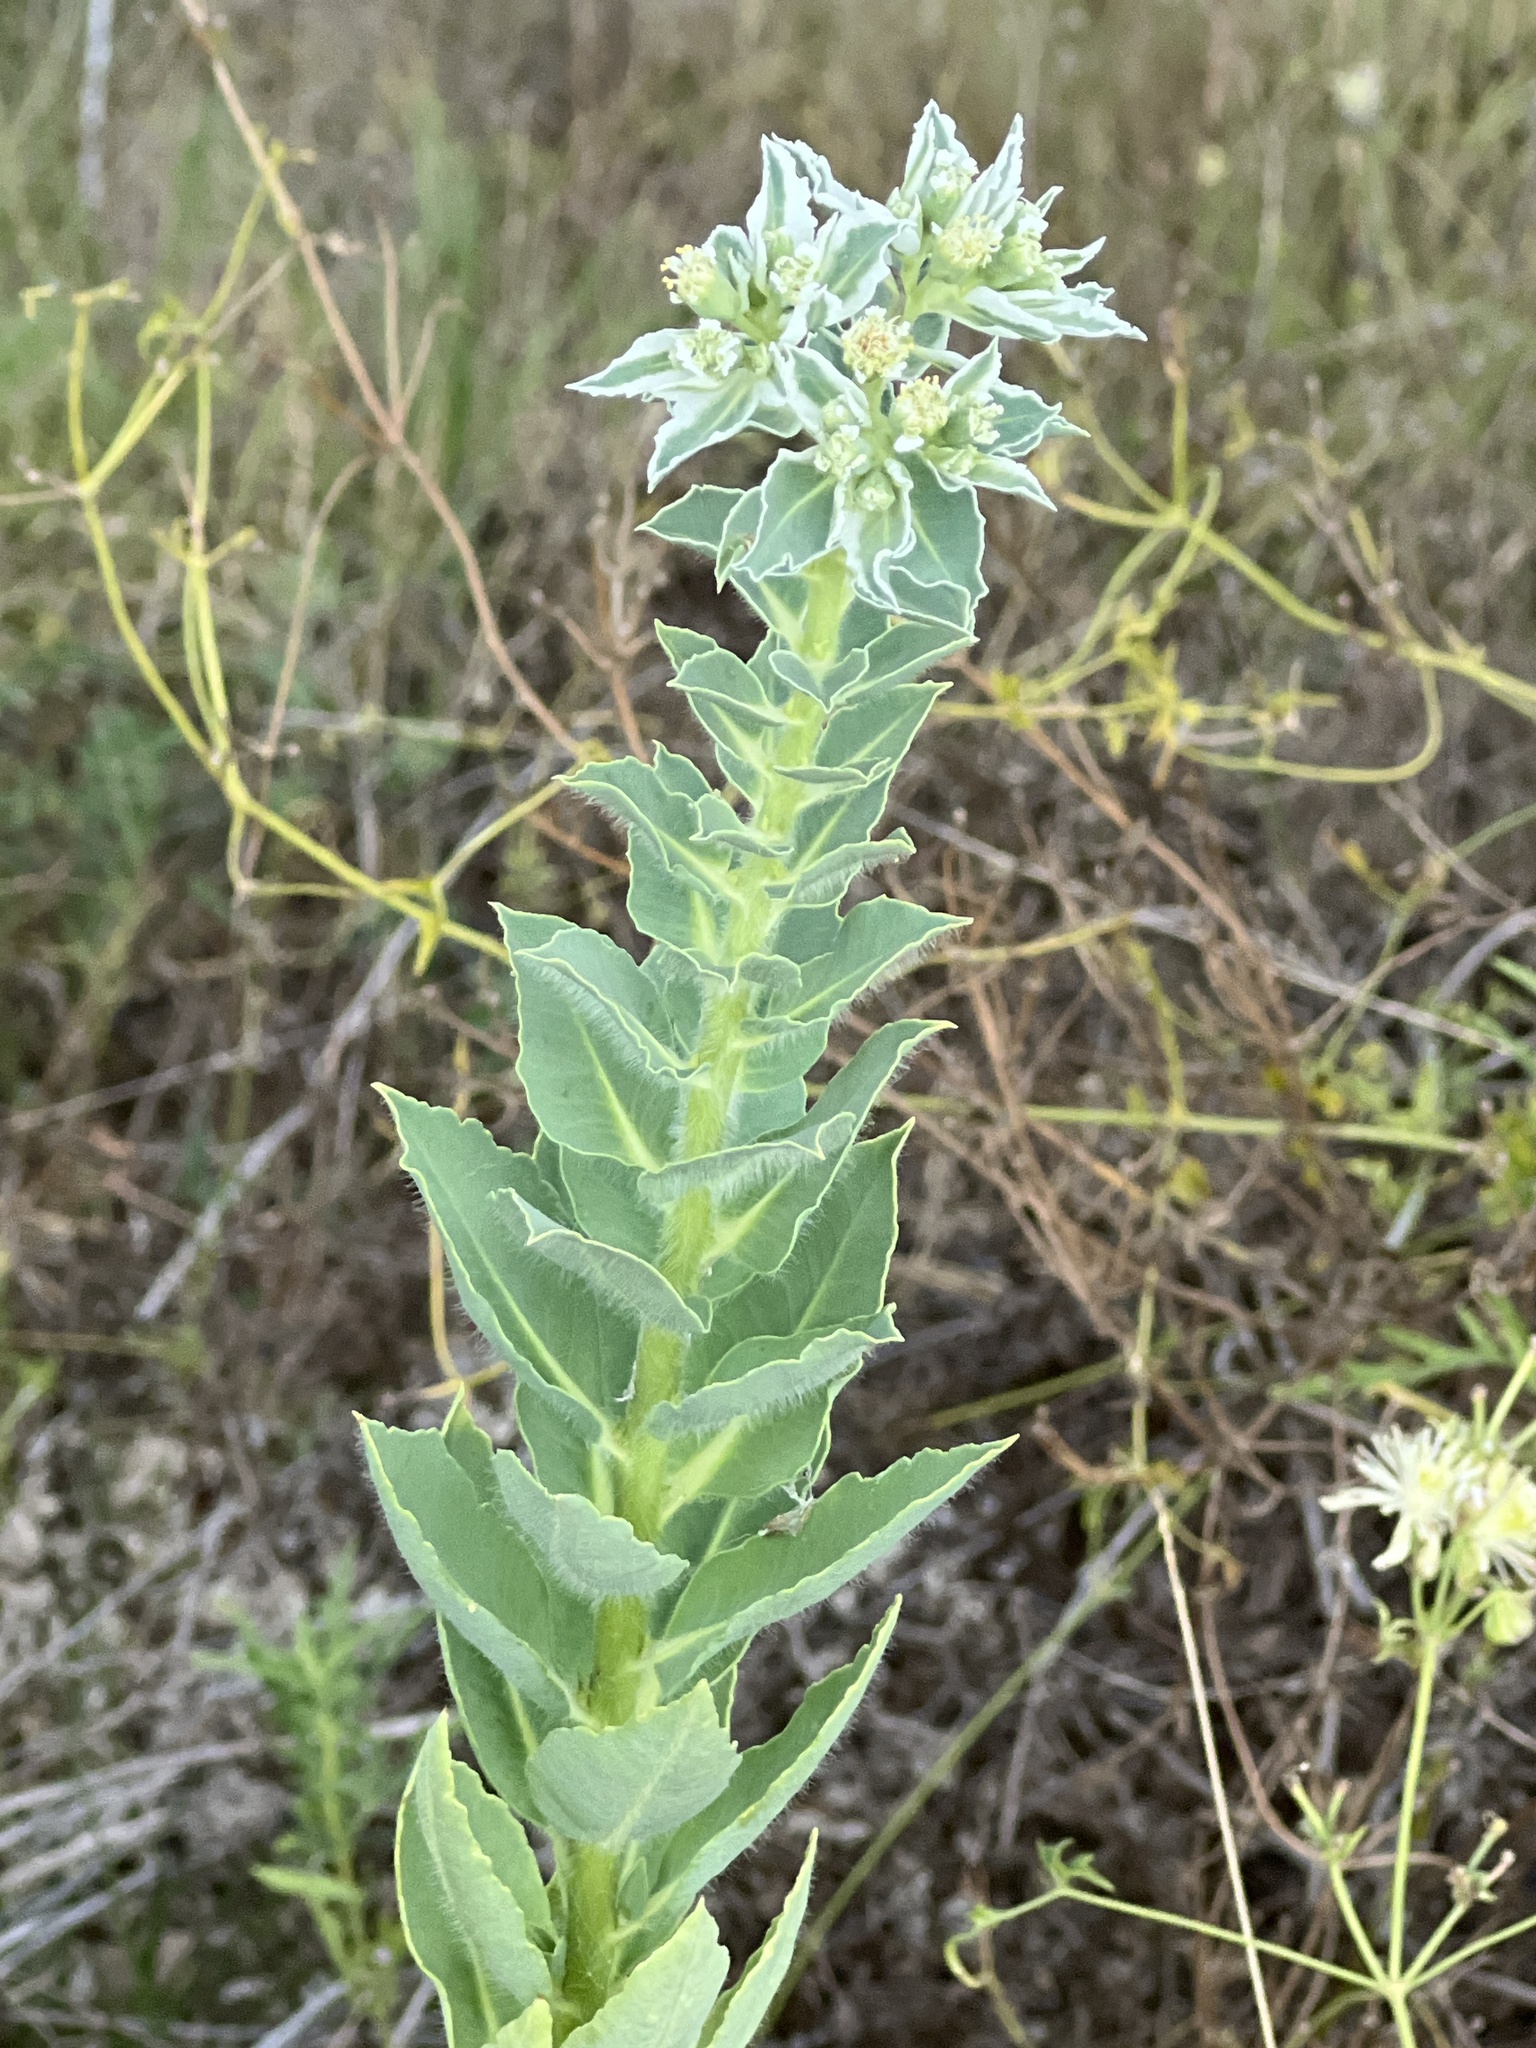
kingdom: Plantae
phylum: Tracheophyta
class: Magnoliopsida
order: Malpighiales
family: Euphorbiaceae
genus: Euphorbia
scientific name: Euphorbia marginata
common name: Ghostweed
